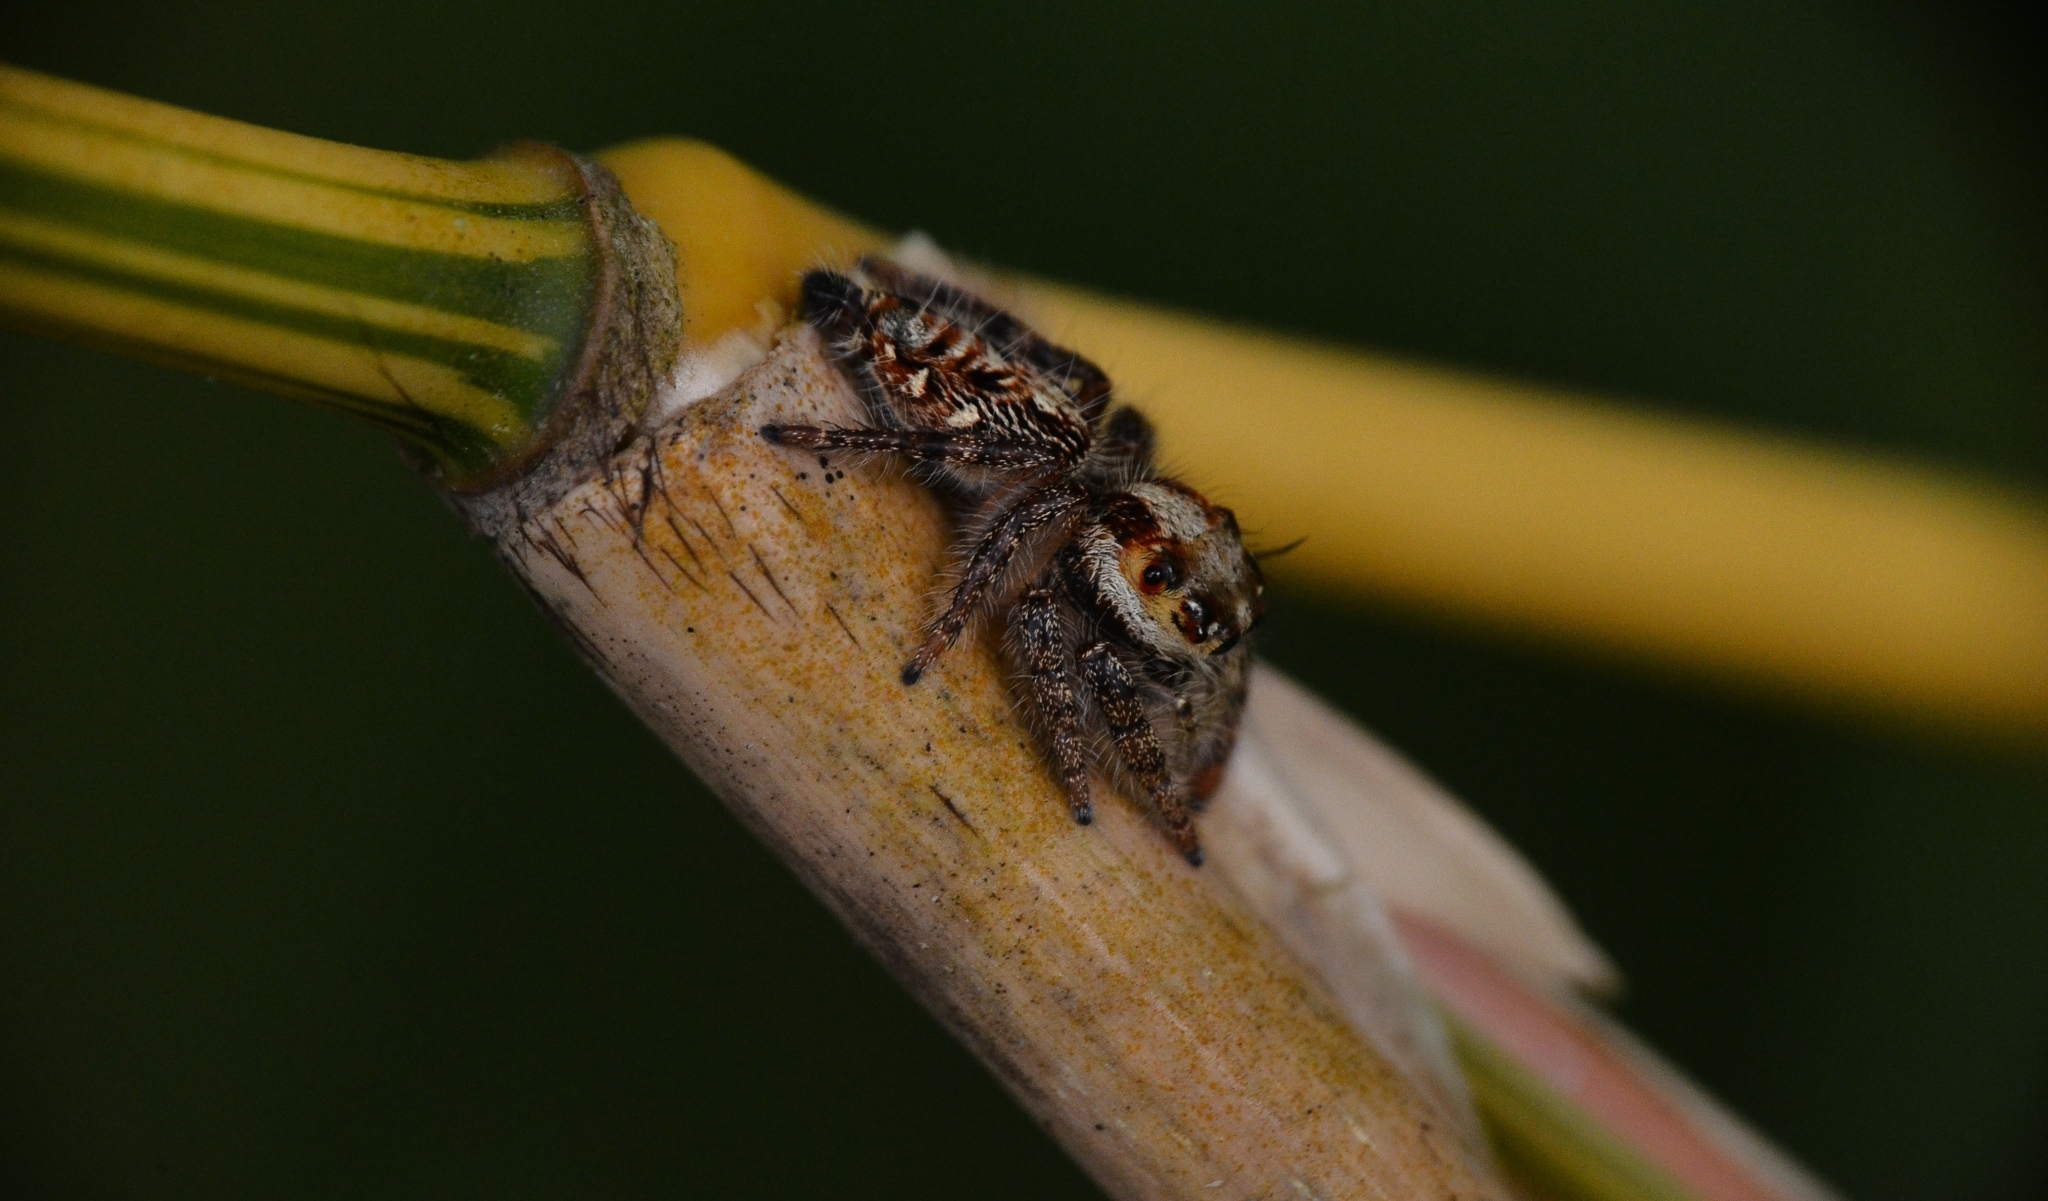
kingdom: Animalia
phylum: Arthropoda
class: Arachnida
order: Araneae
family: Salticidae
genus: Hyllus
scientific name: Hyllus semicupreus
